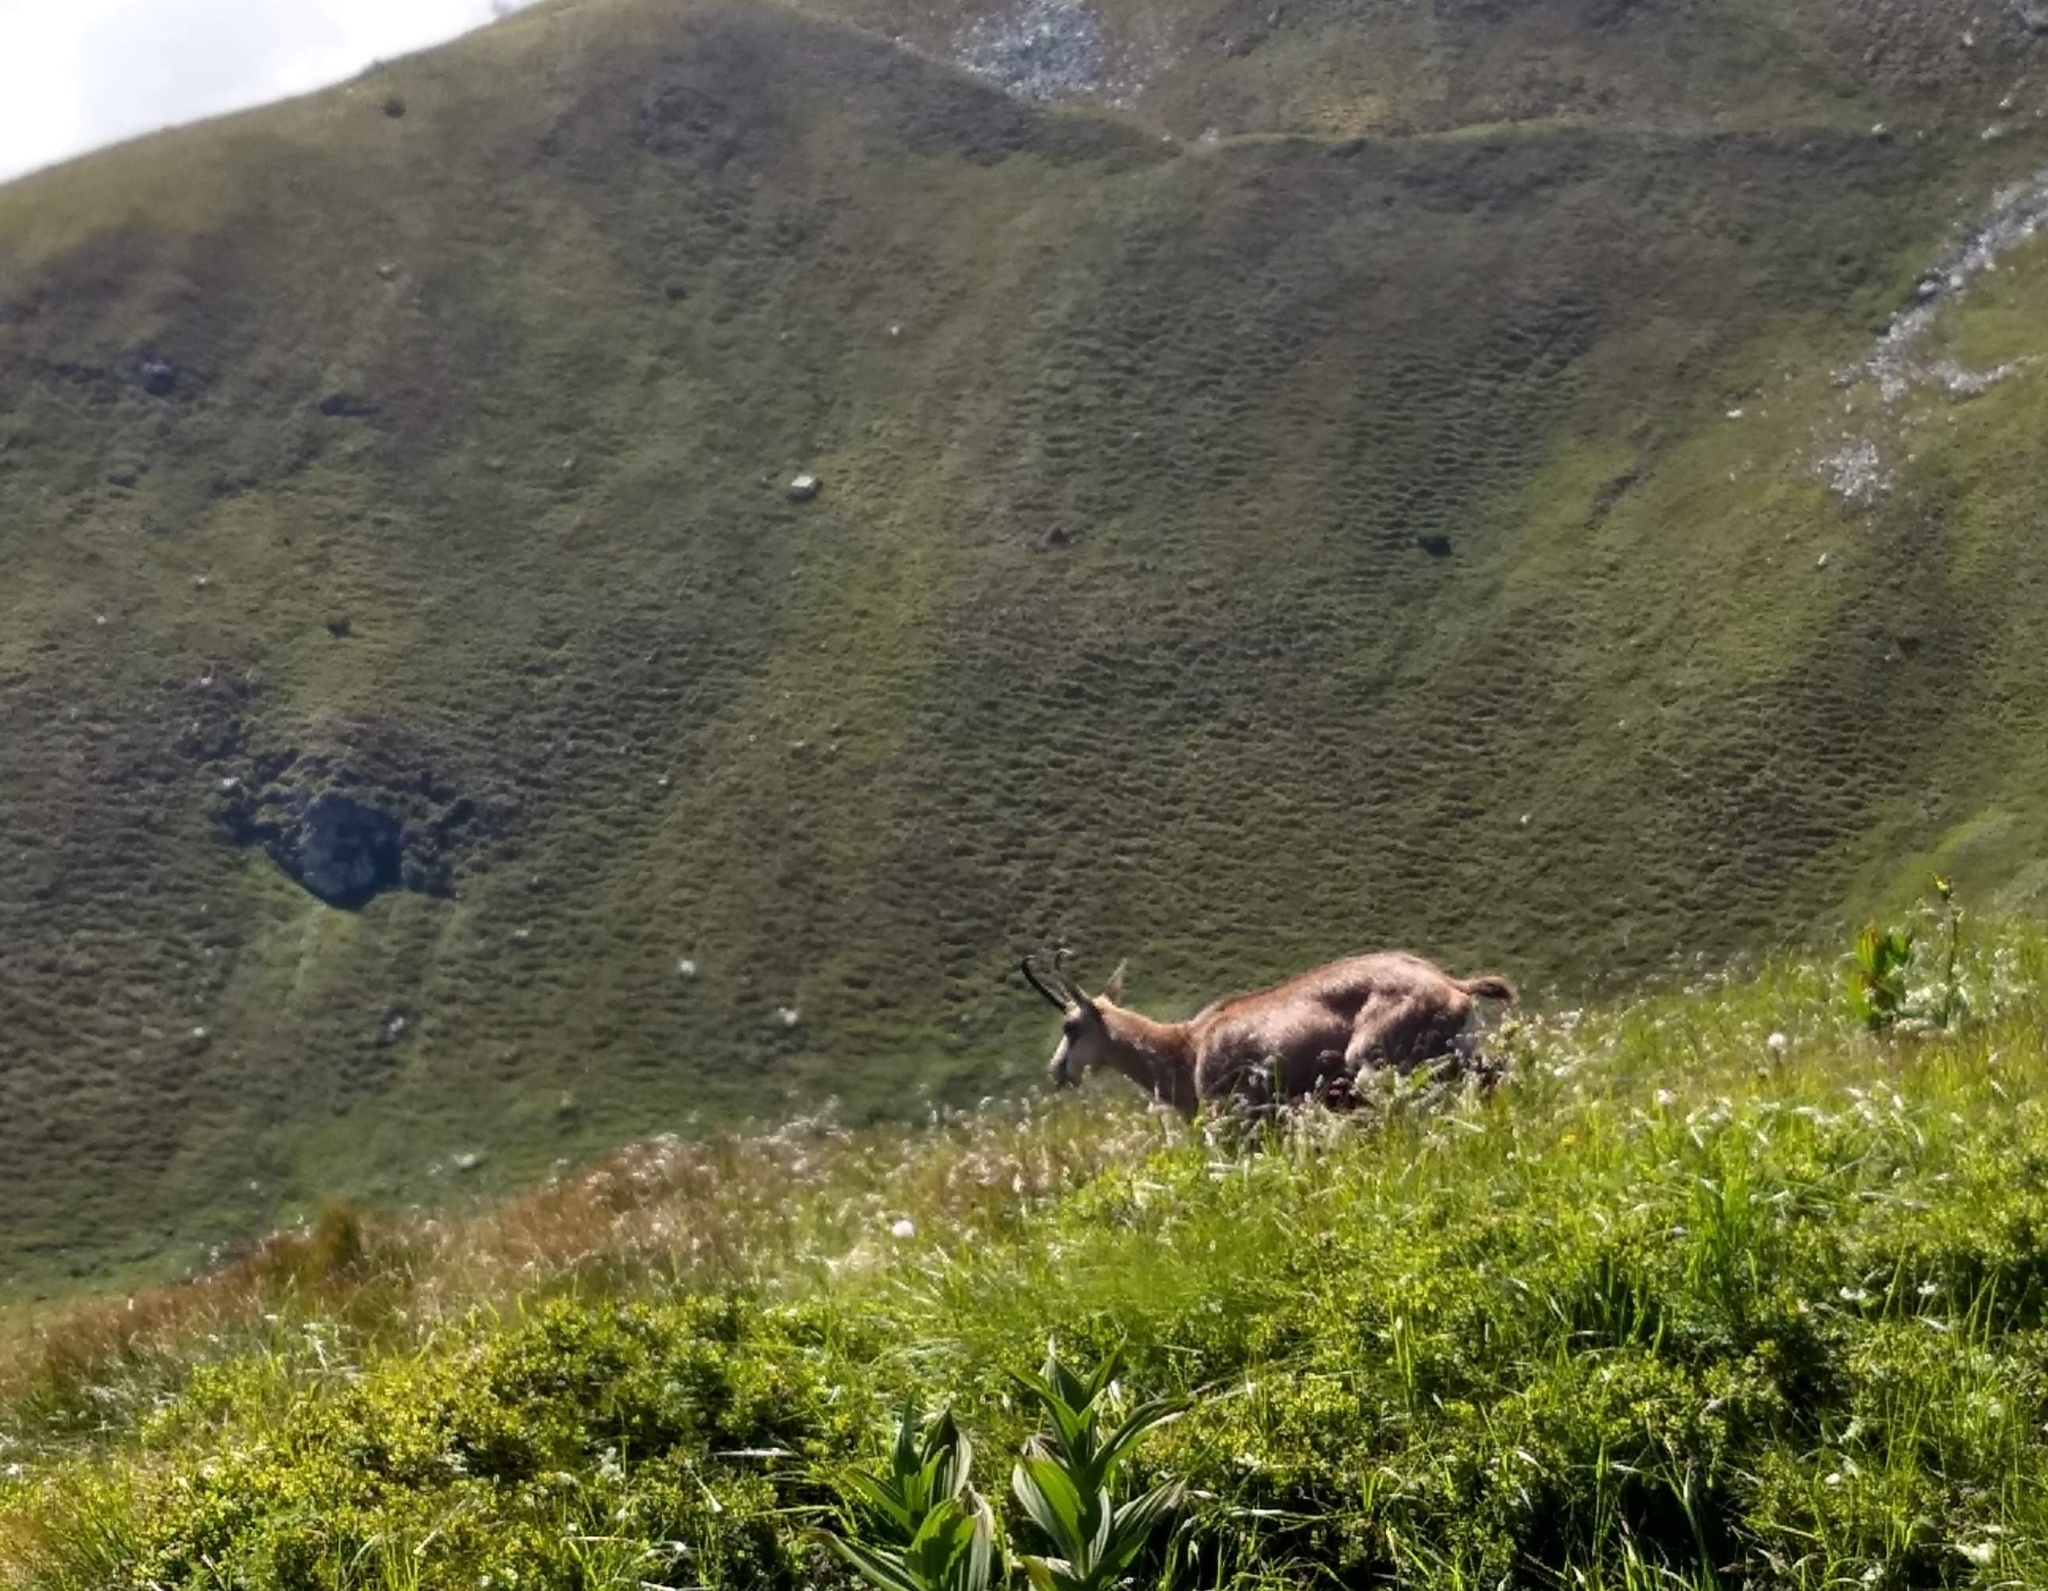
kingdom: Animalia
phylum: Chordata
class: Mammalia
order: Artiodactyla
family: Bovidae
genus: Rupicapra
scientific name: Rupicapra rupicapra
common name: Chamois
